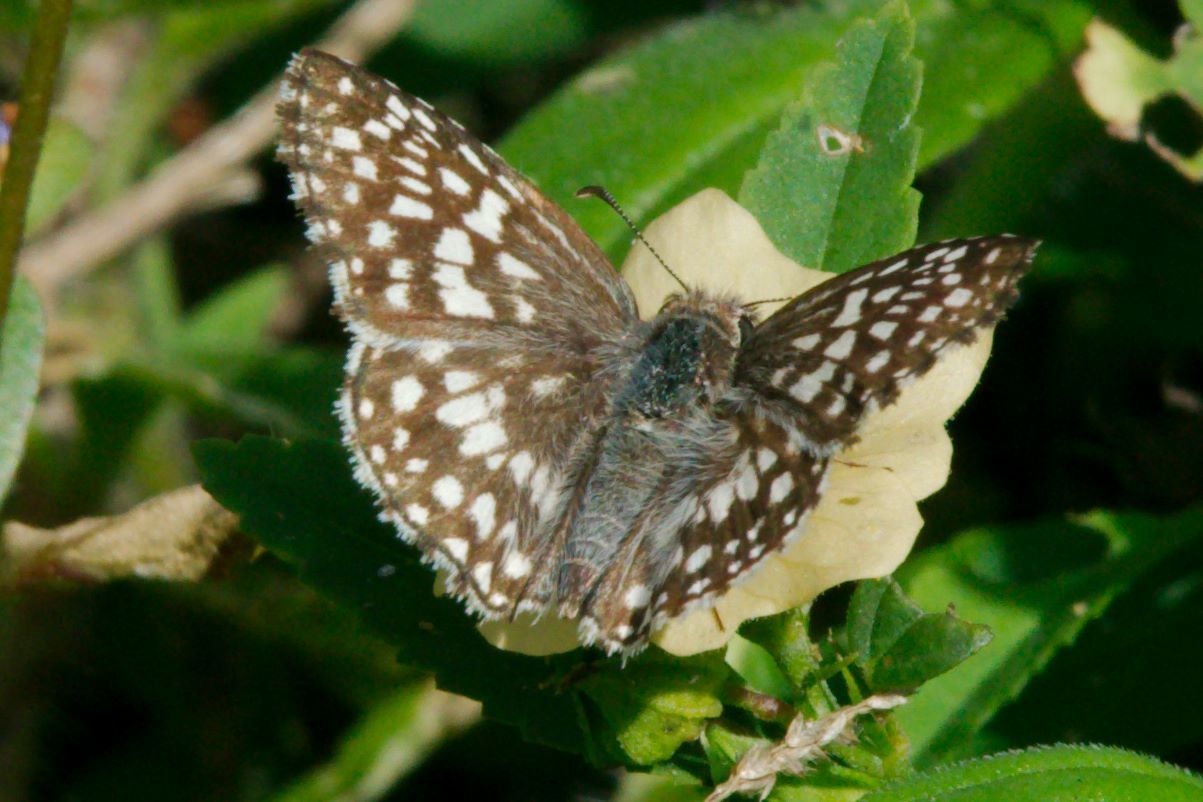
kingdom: Animalia
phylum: Arthropoda
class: Insecta
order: Lepidoptera
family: Hesperiidae
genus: Pyrgus
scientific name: Pyrgus oileus
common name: Tropical checkered-skipper
